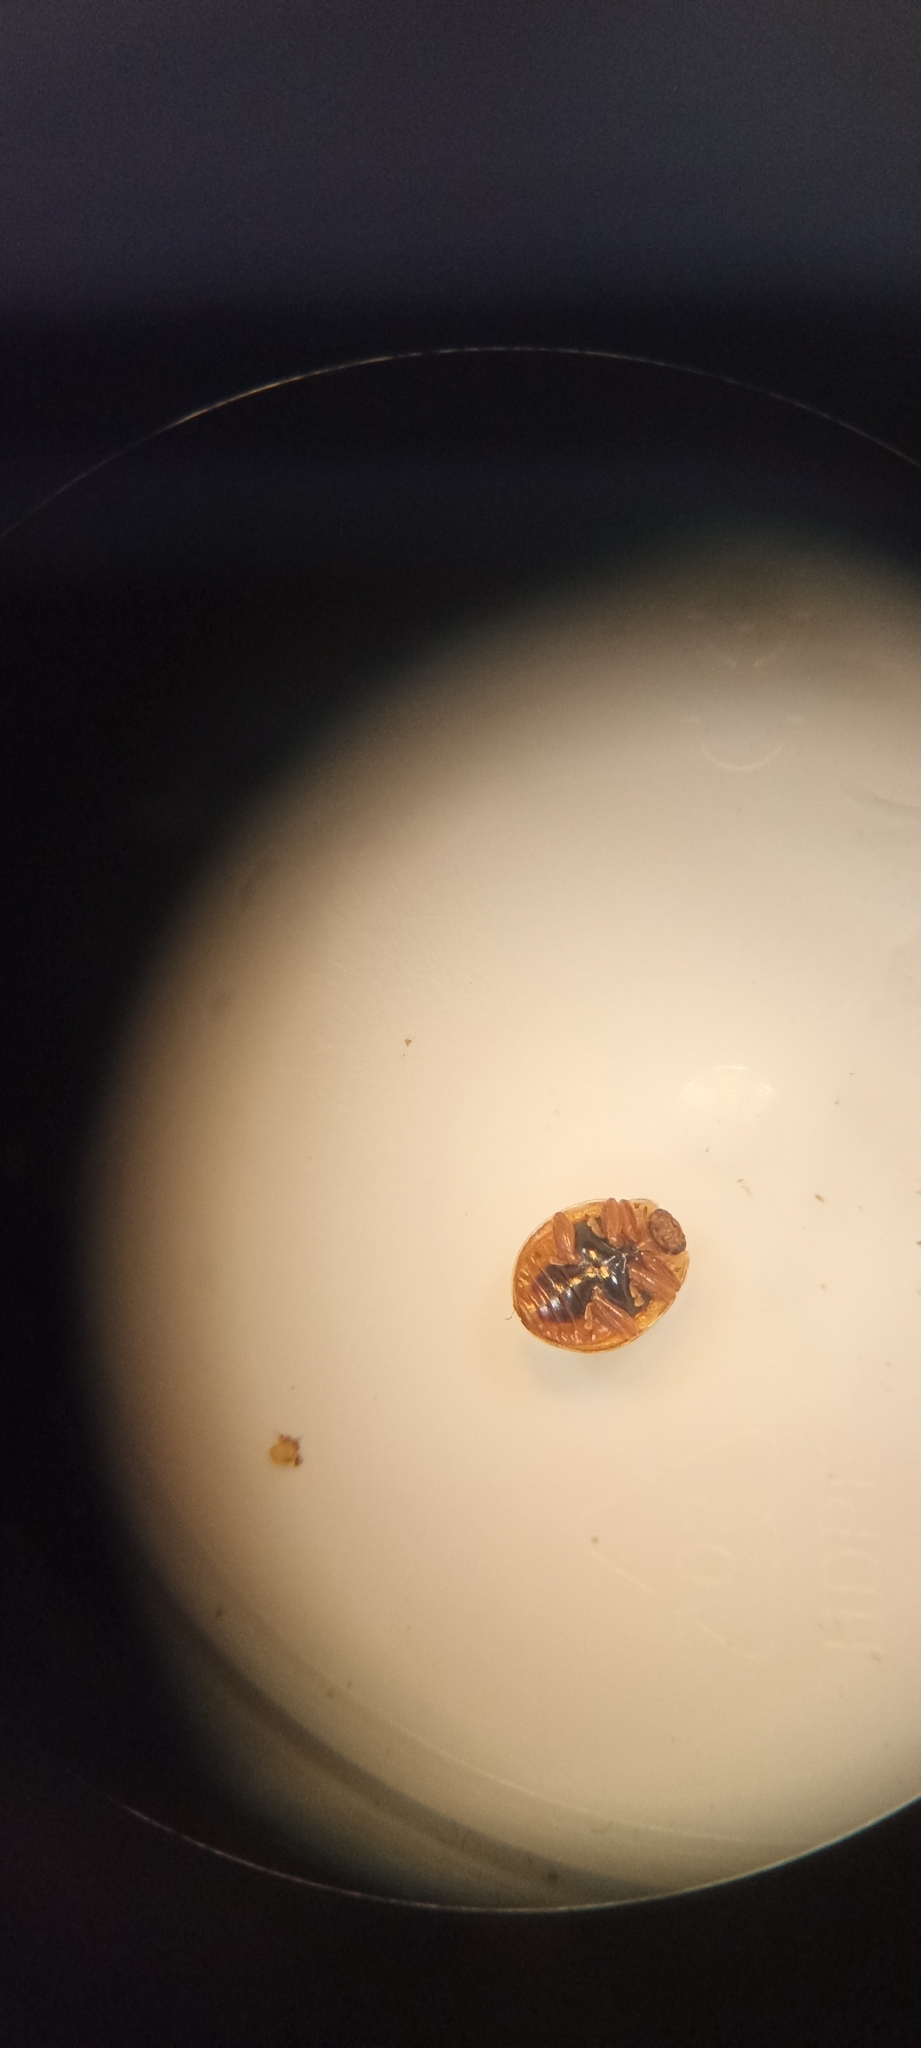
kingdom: Animalia
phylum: Arthropoda
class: Insecta
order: Coleoptera
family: Coccinellidae
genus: Calvia
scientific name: Calvia quatuordecimguttata
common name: Cream-spot ladybird
